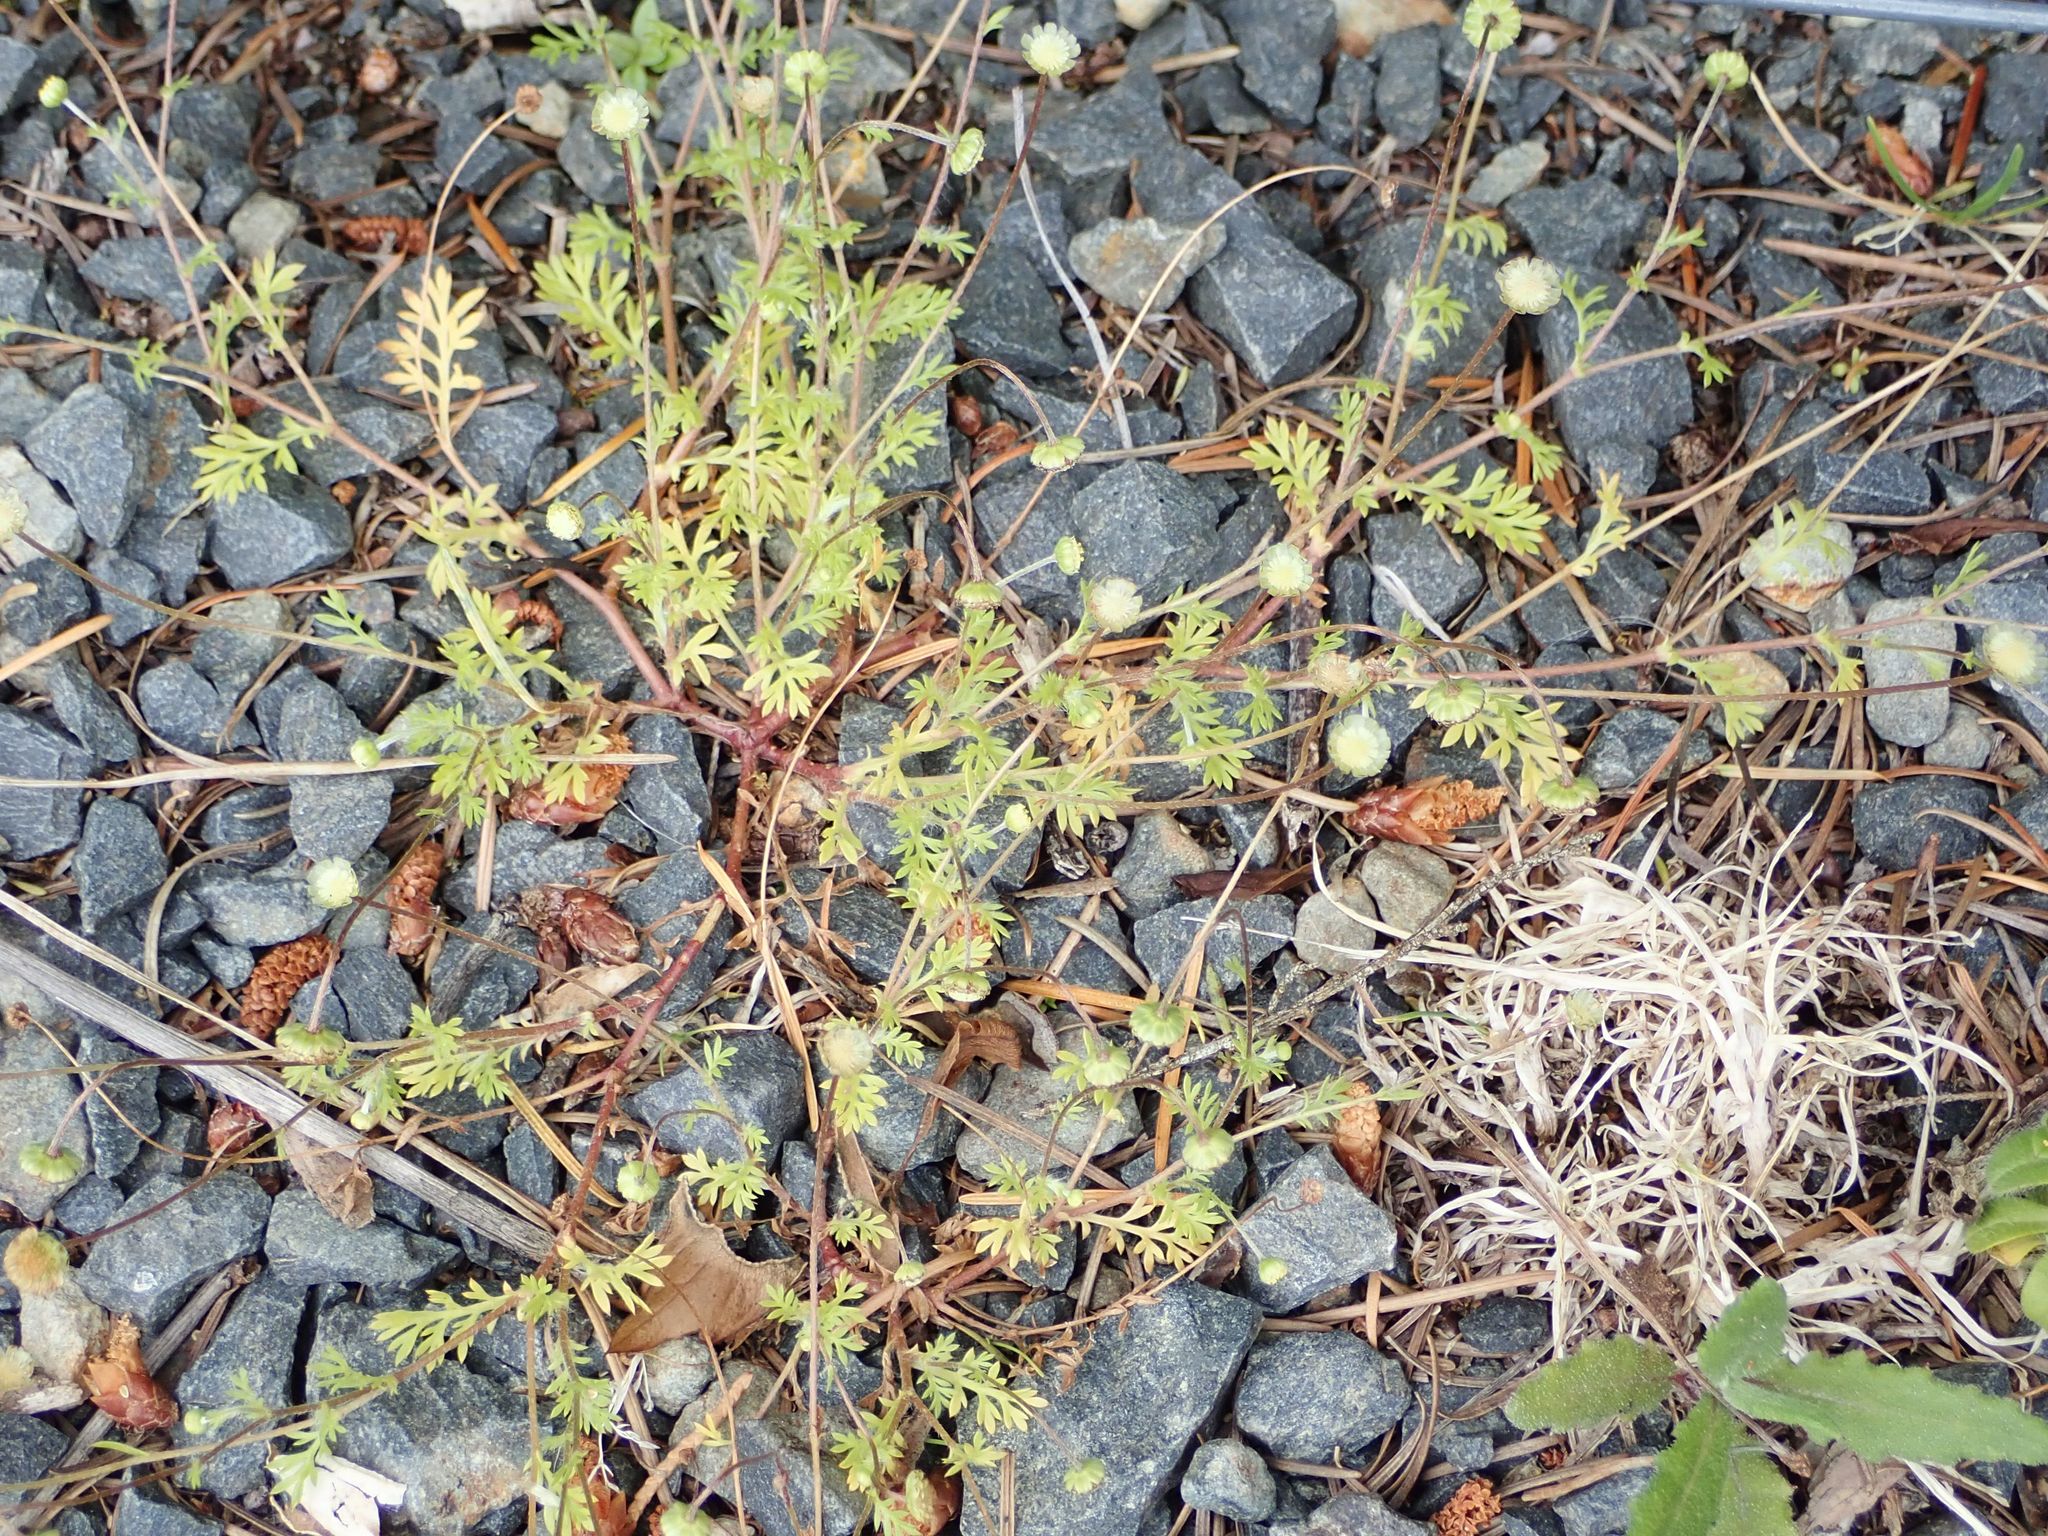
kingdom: Plantae
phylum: Tracheophyta
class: Magnoliopsida
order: Asterales
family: Asteraceae
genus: Cotula
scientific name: Cotula australis
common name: Australian waterbuttons
